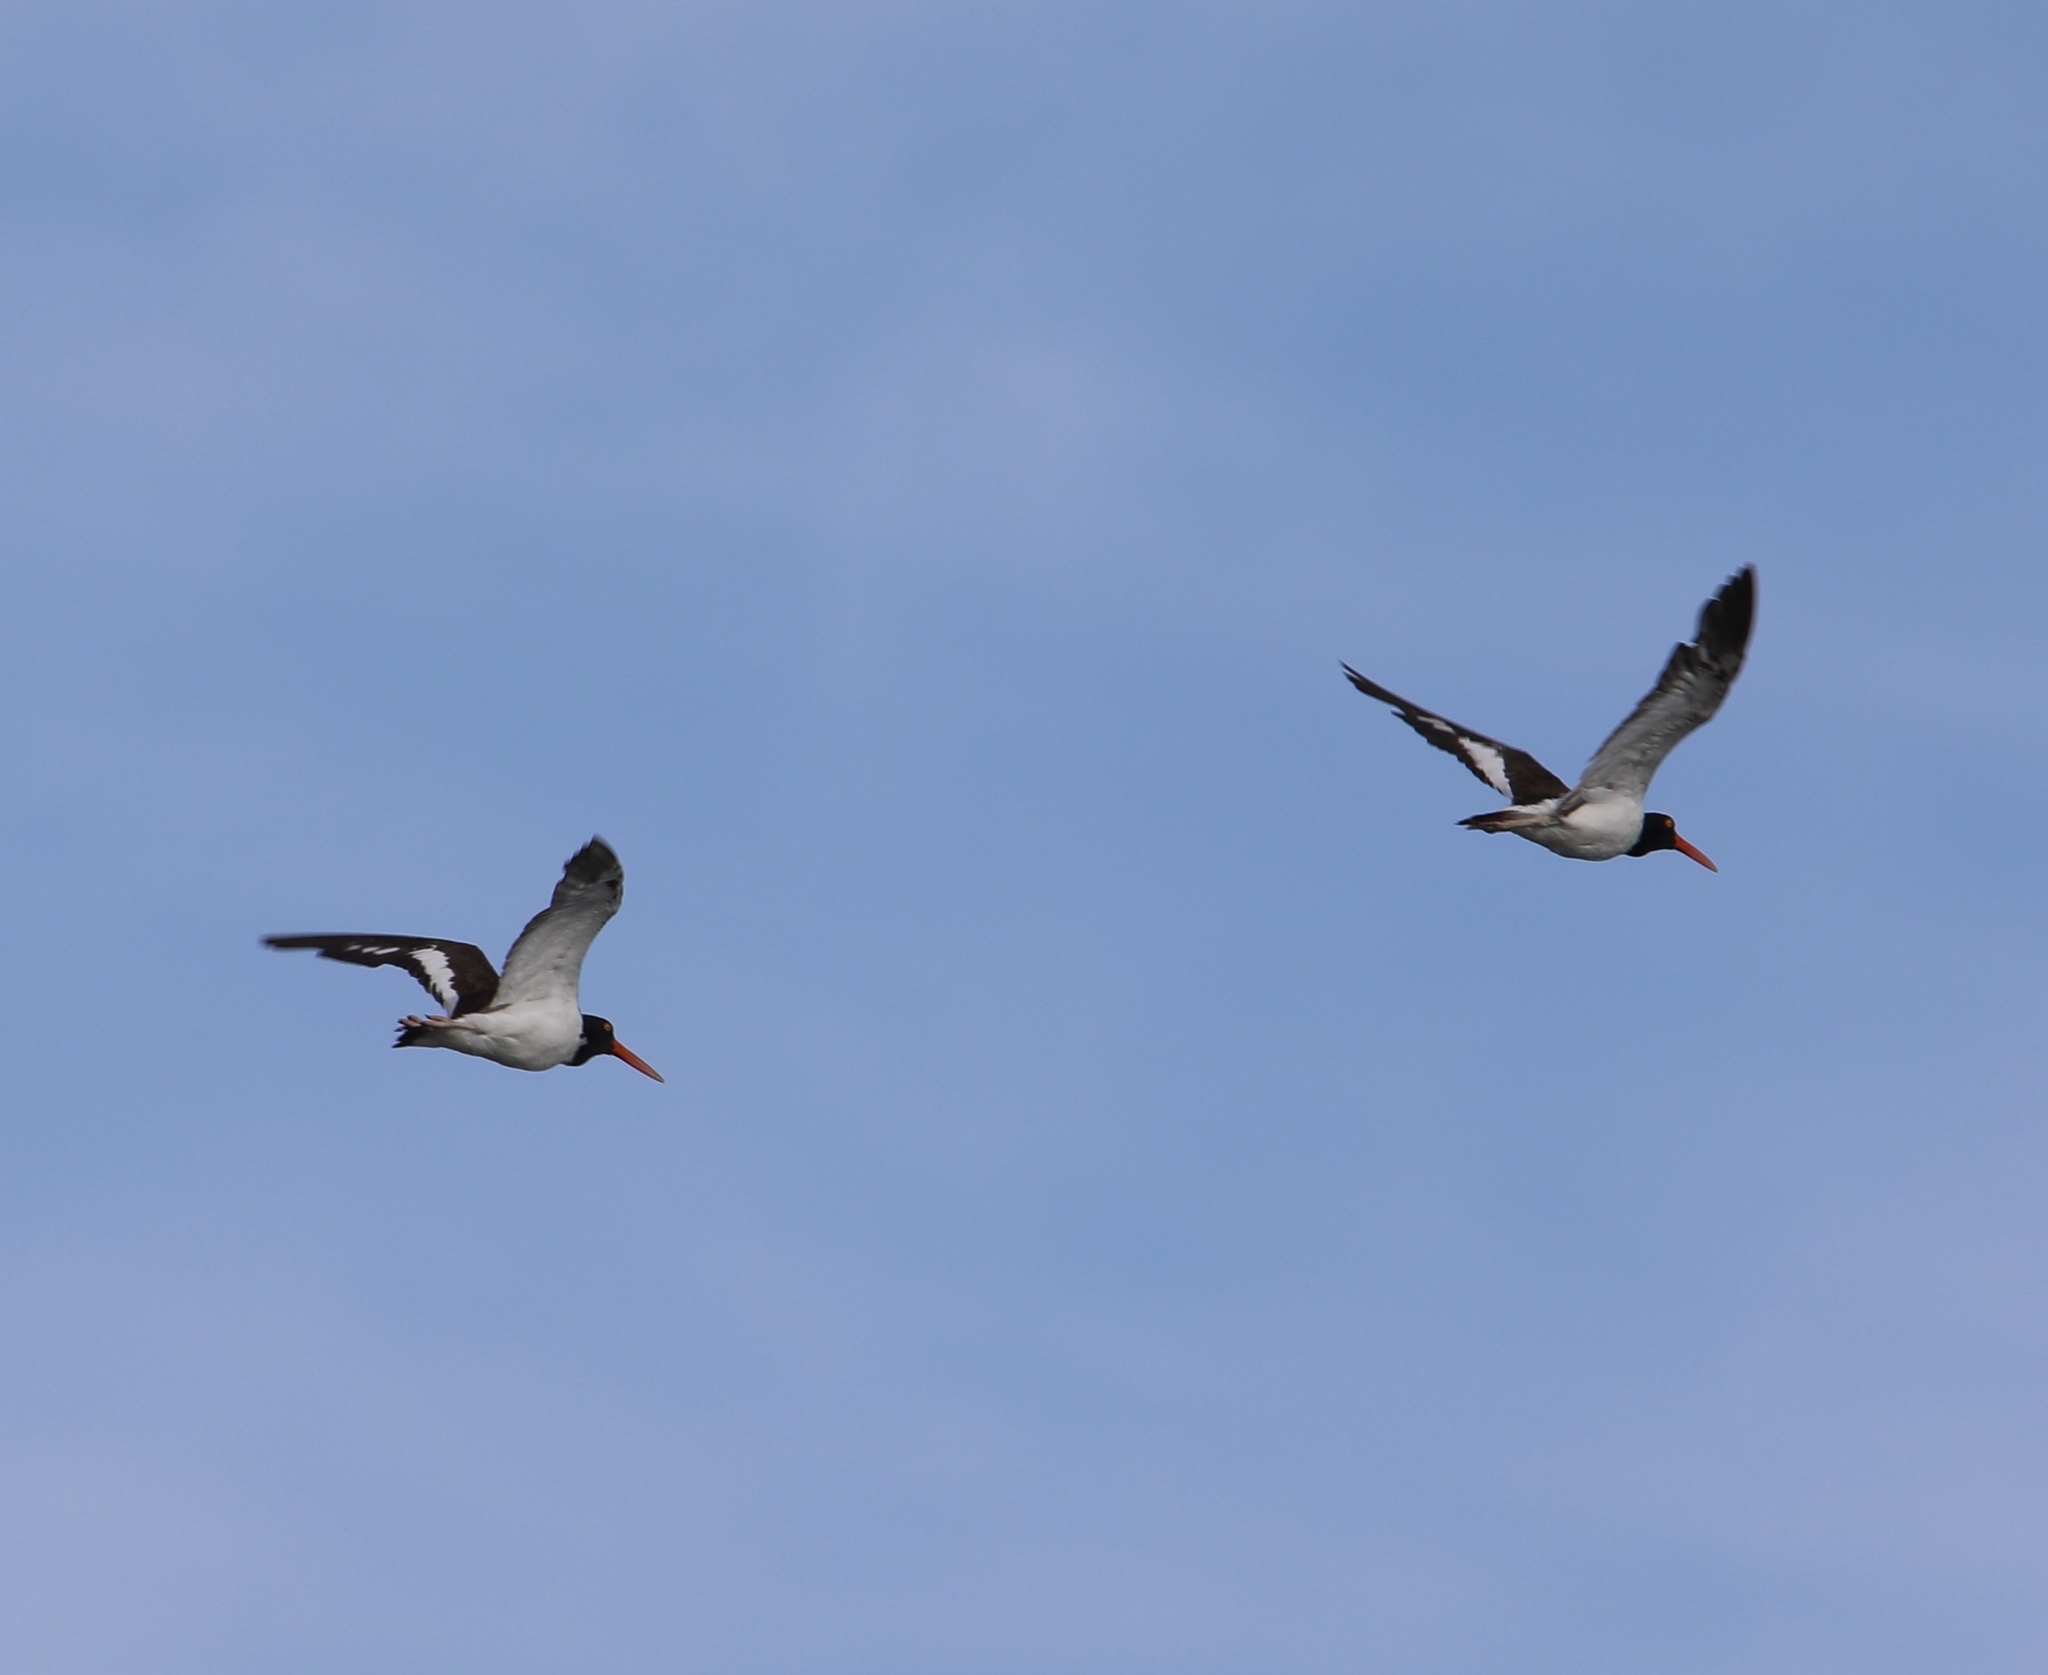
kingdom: Animalia
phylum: Chordata
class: Aves
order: Charadriiformes
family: Haematopodidae
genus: Haematopus
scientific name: Haematopus palliatus
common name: American oystercatcher
